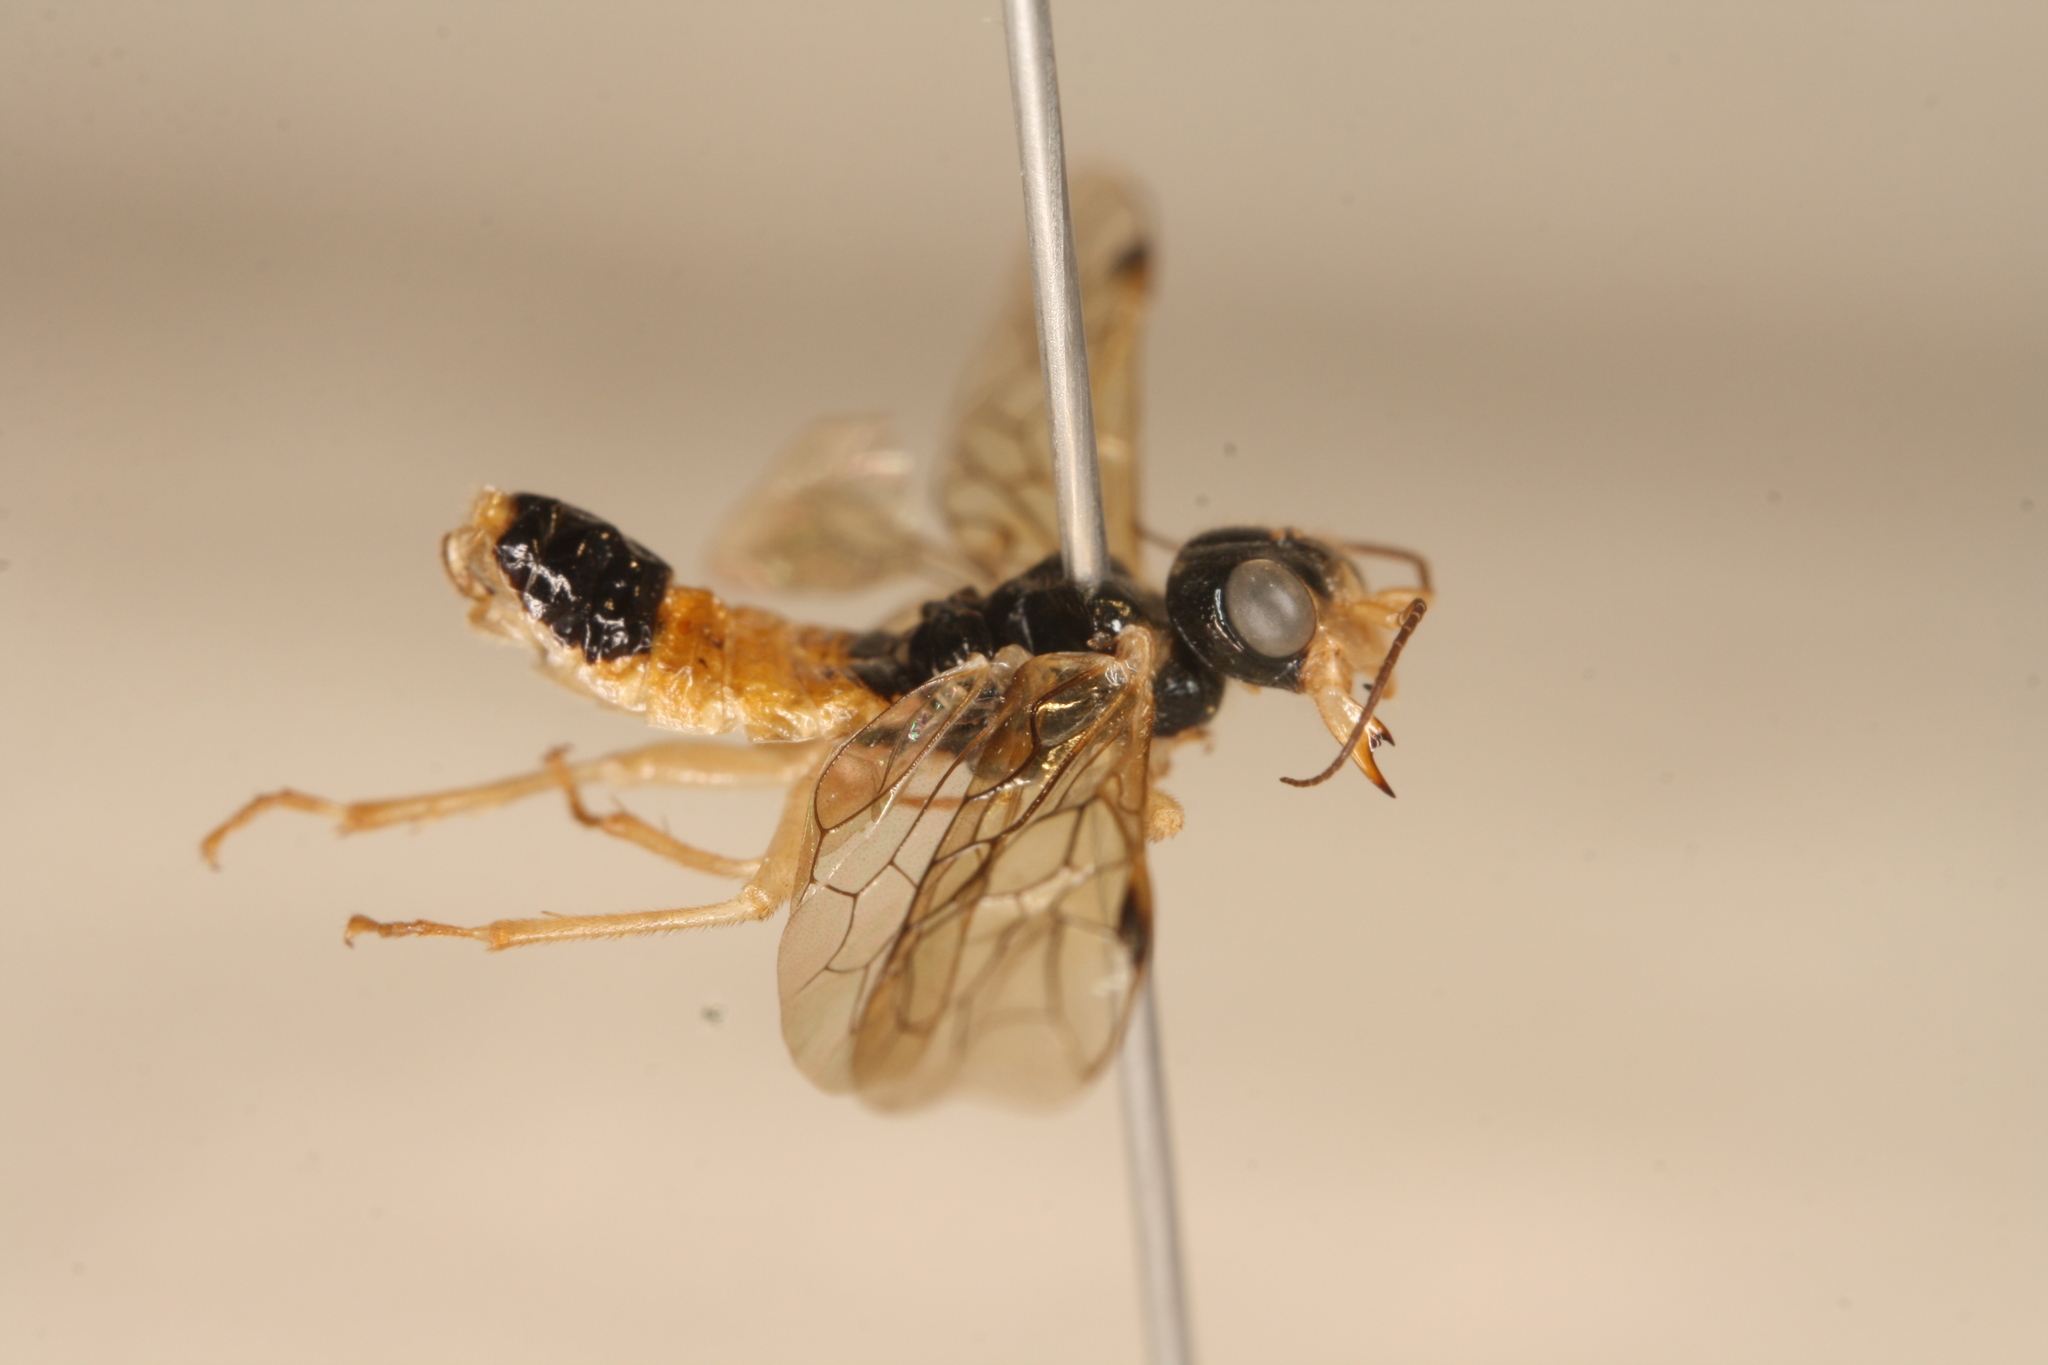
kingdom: Animalia
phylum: Arthropoda
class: Insecta
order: Hymenoptera
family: Pamphiliidae
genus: Pamphilius
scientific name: Pamphilius alternans
